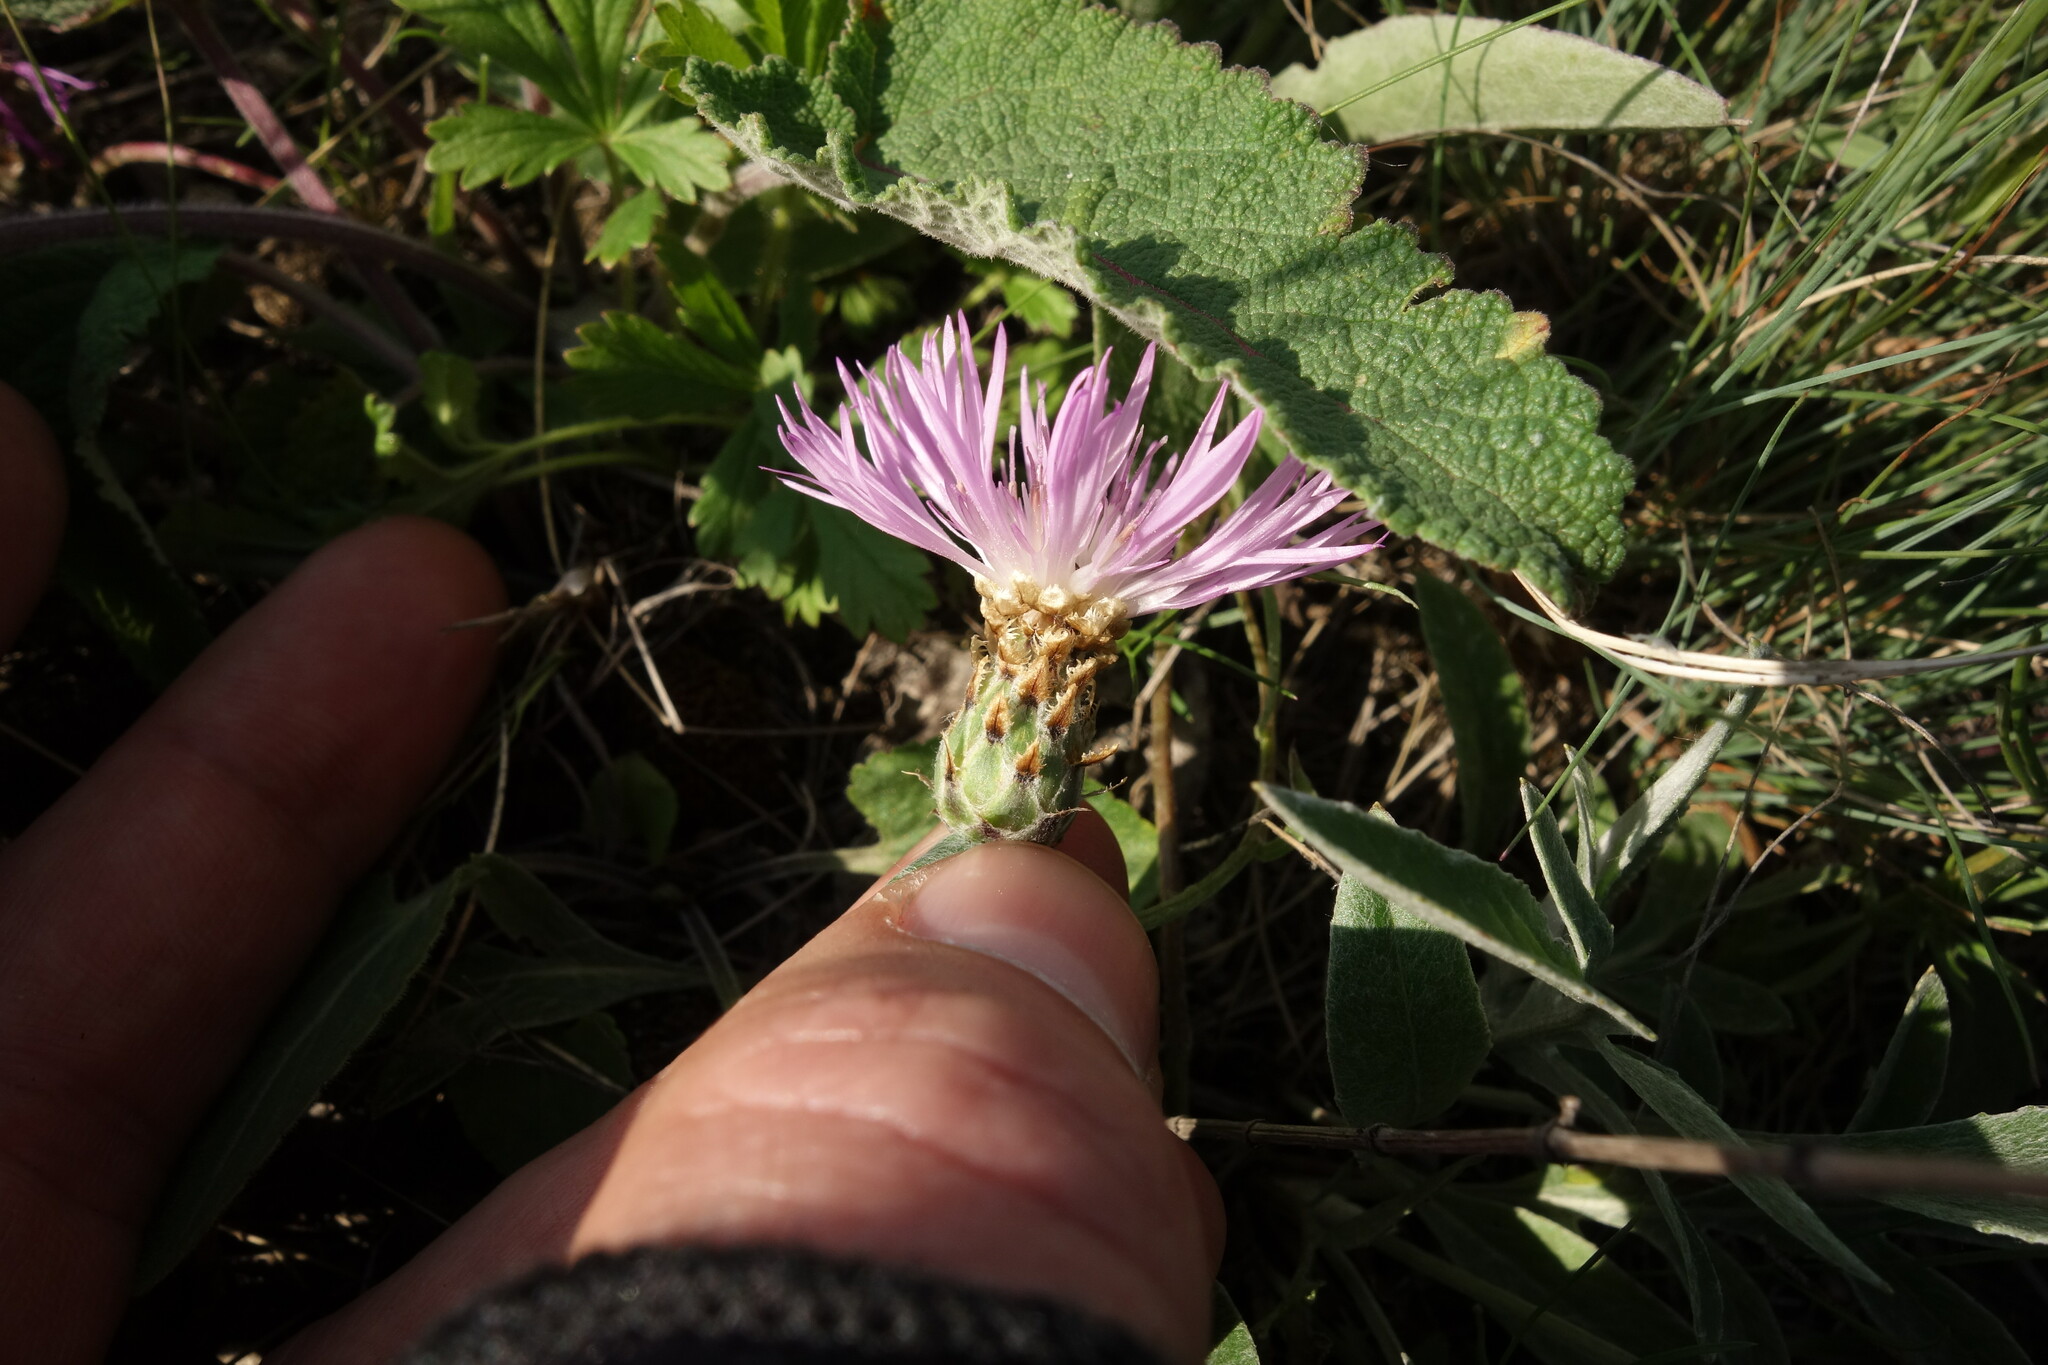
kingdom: Plantae
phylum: Tracheophyta
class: Magnoliopsida
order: Asterales
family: Asteraceae
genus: Psephellus
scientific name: Psephellus sumensis
